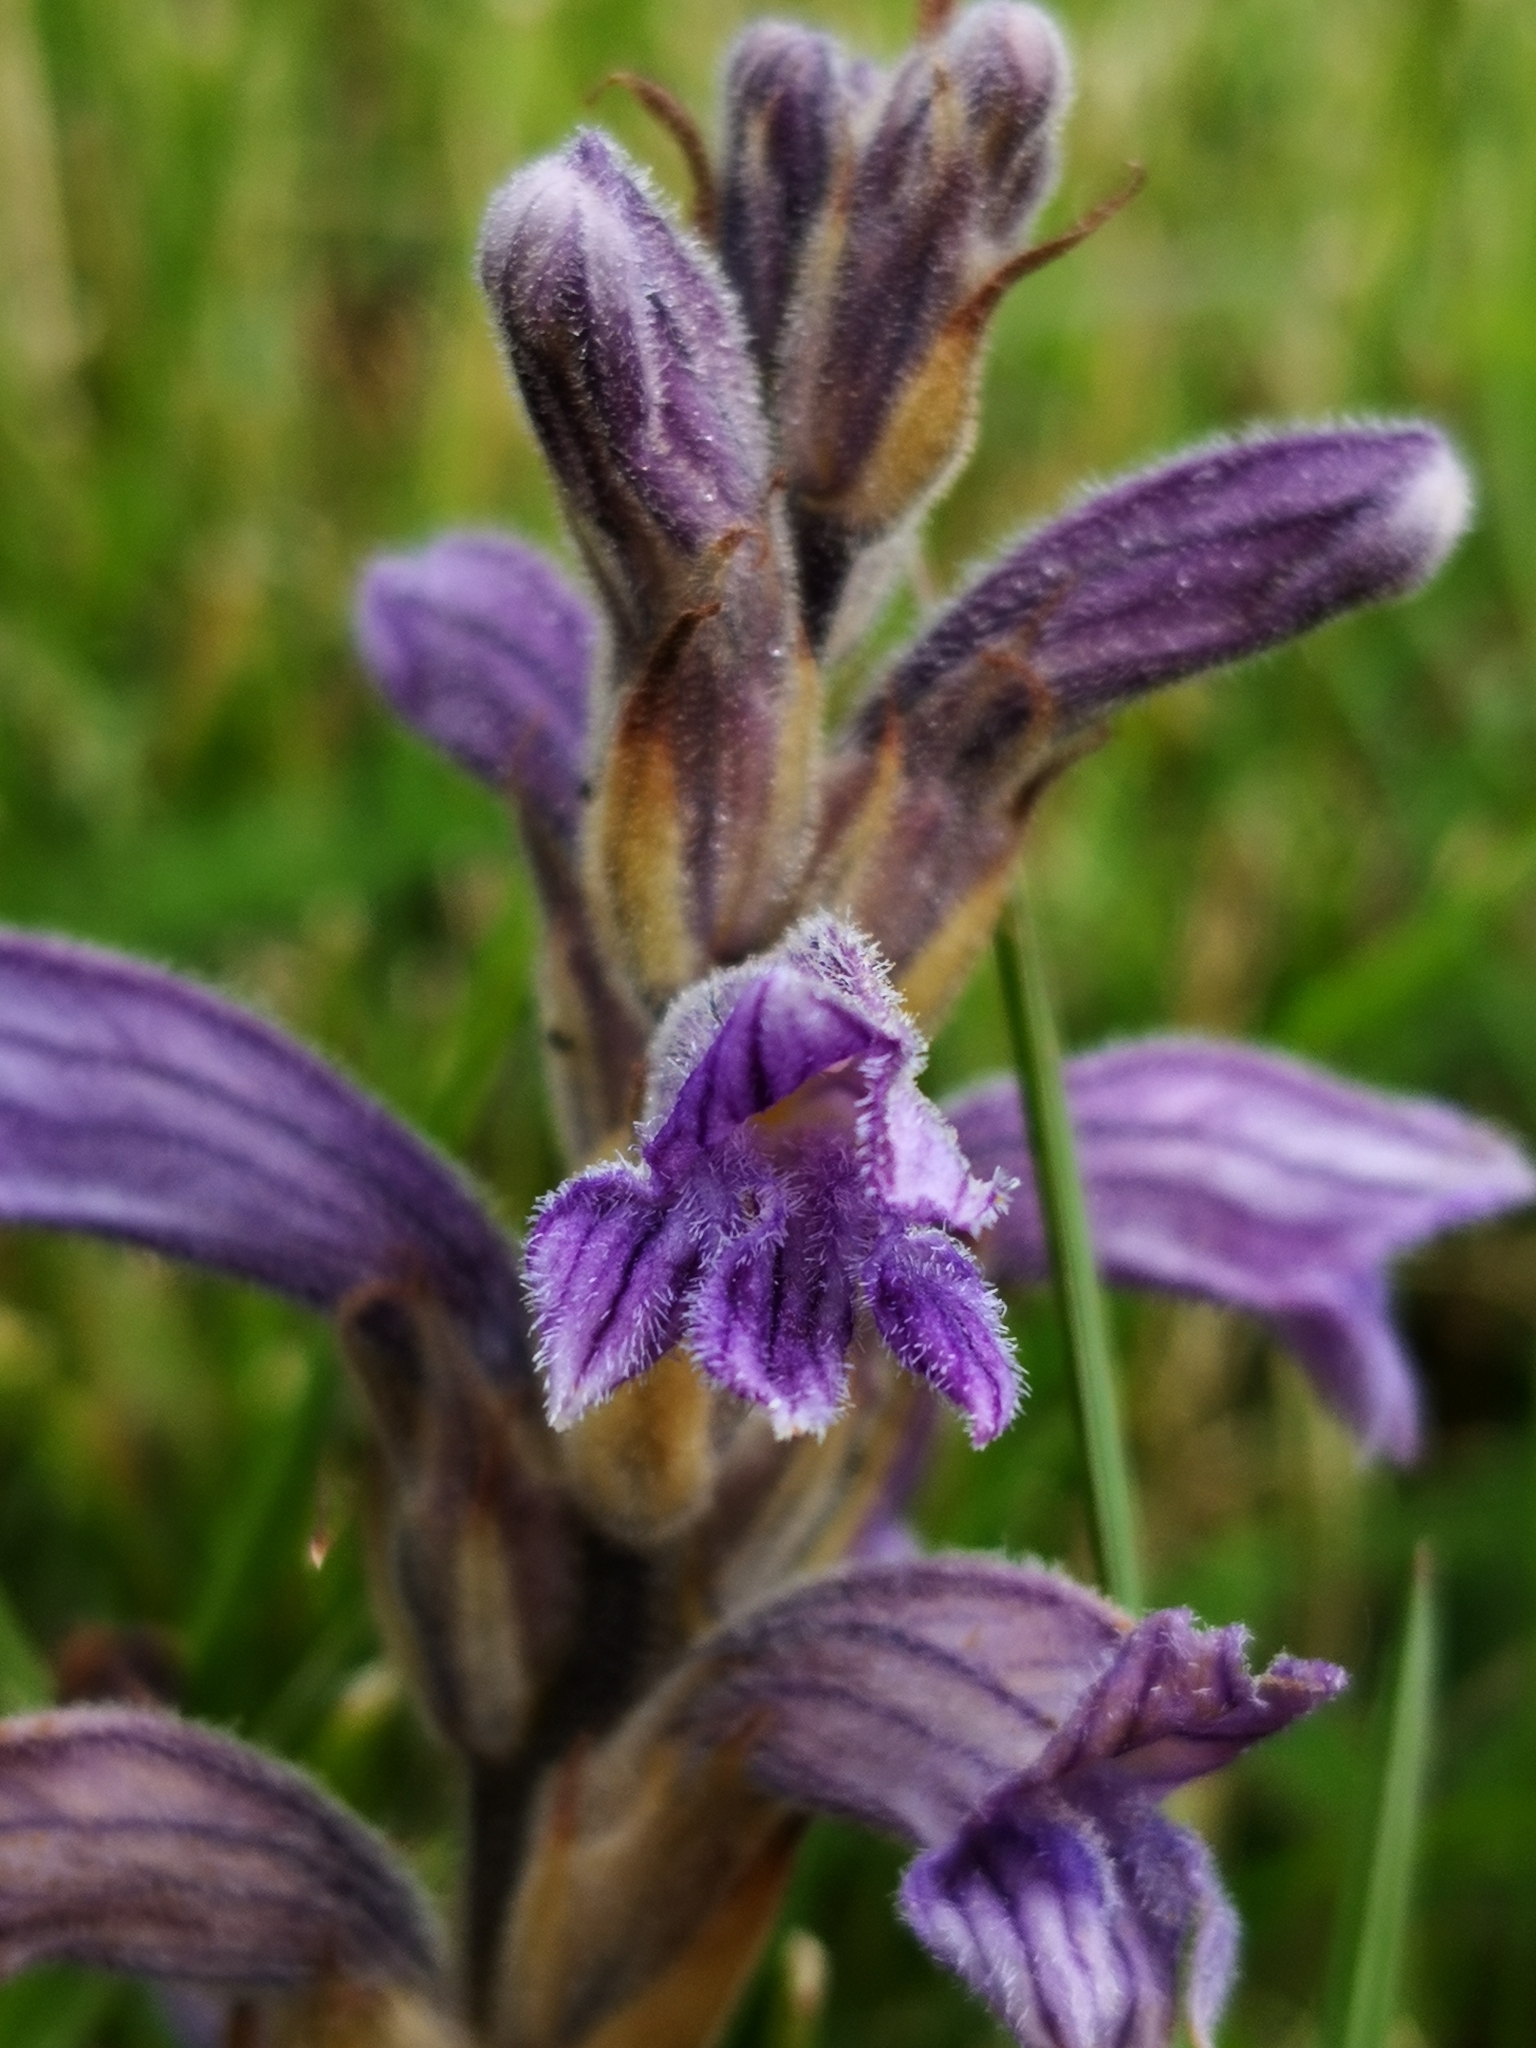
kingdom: Plantae
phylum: Tracheophyta
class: Magnoliopsida
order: Lamiales
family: Orobanchaceae
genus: Phelipanche
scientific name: Phelipanche purpurea
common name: Purple broomrape
